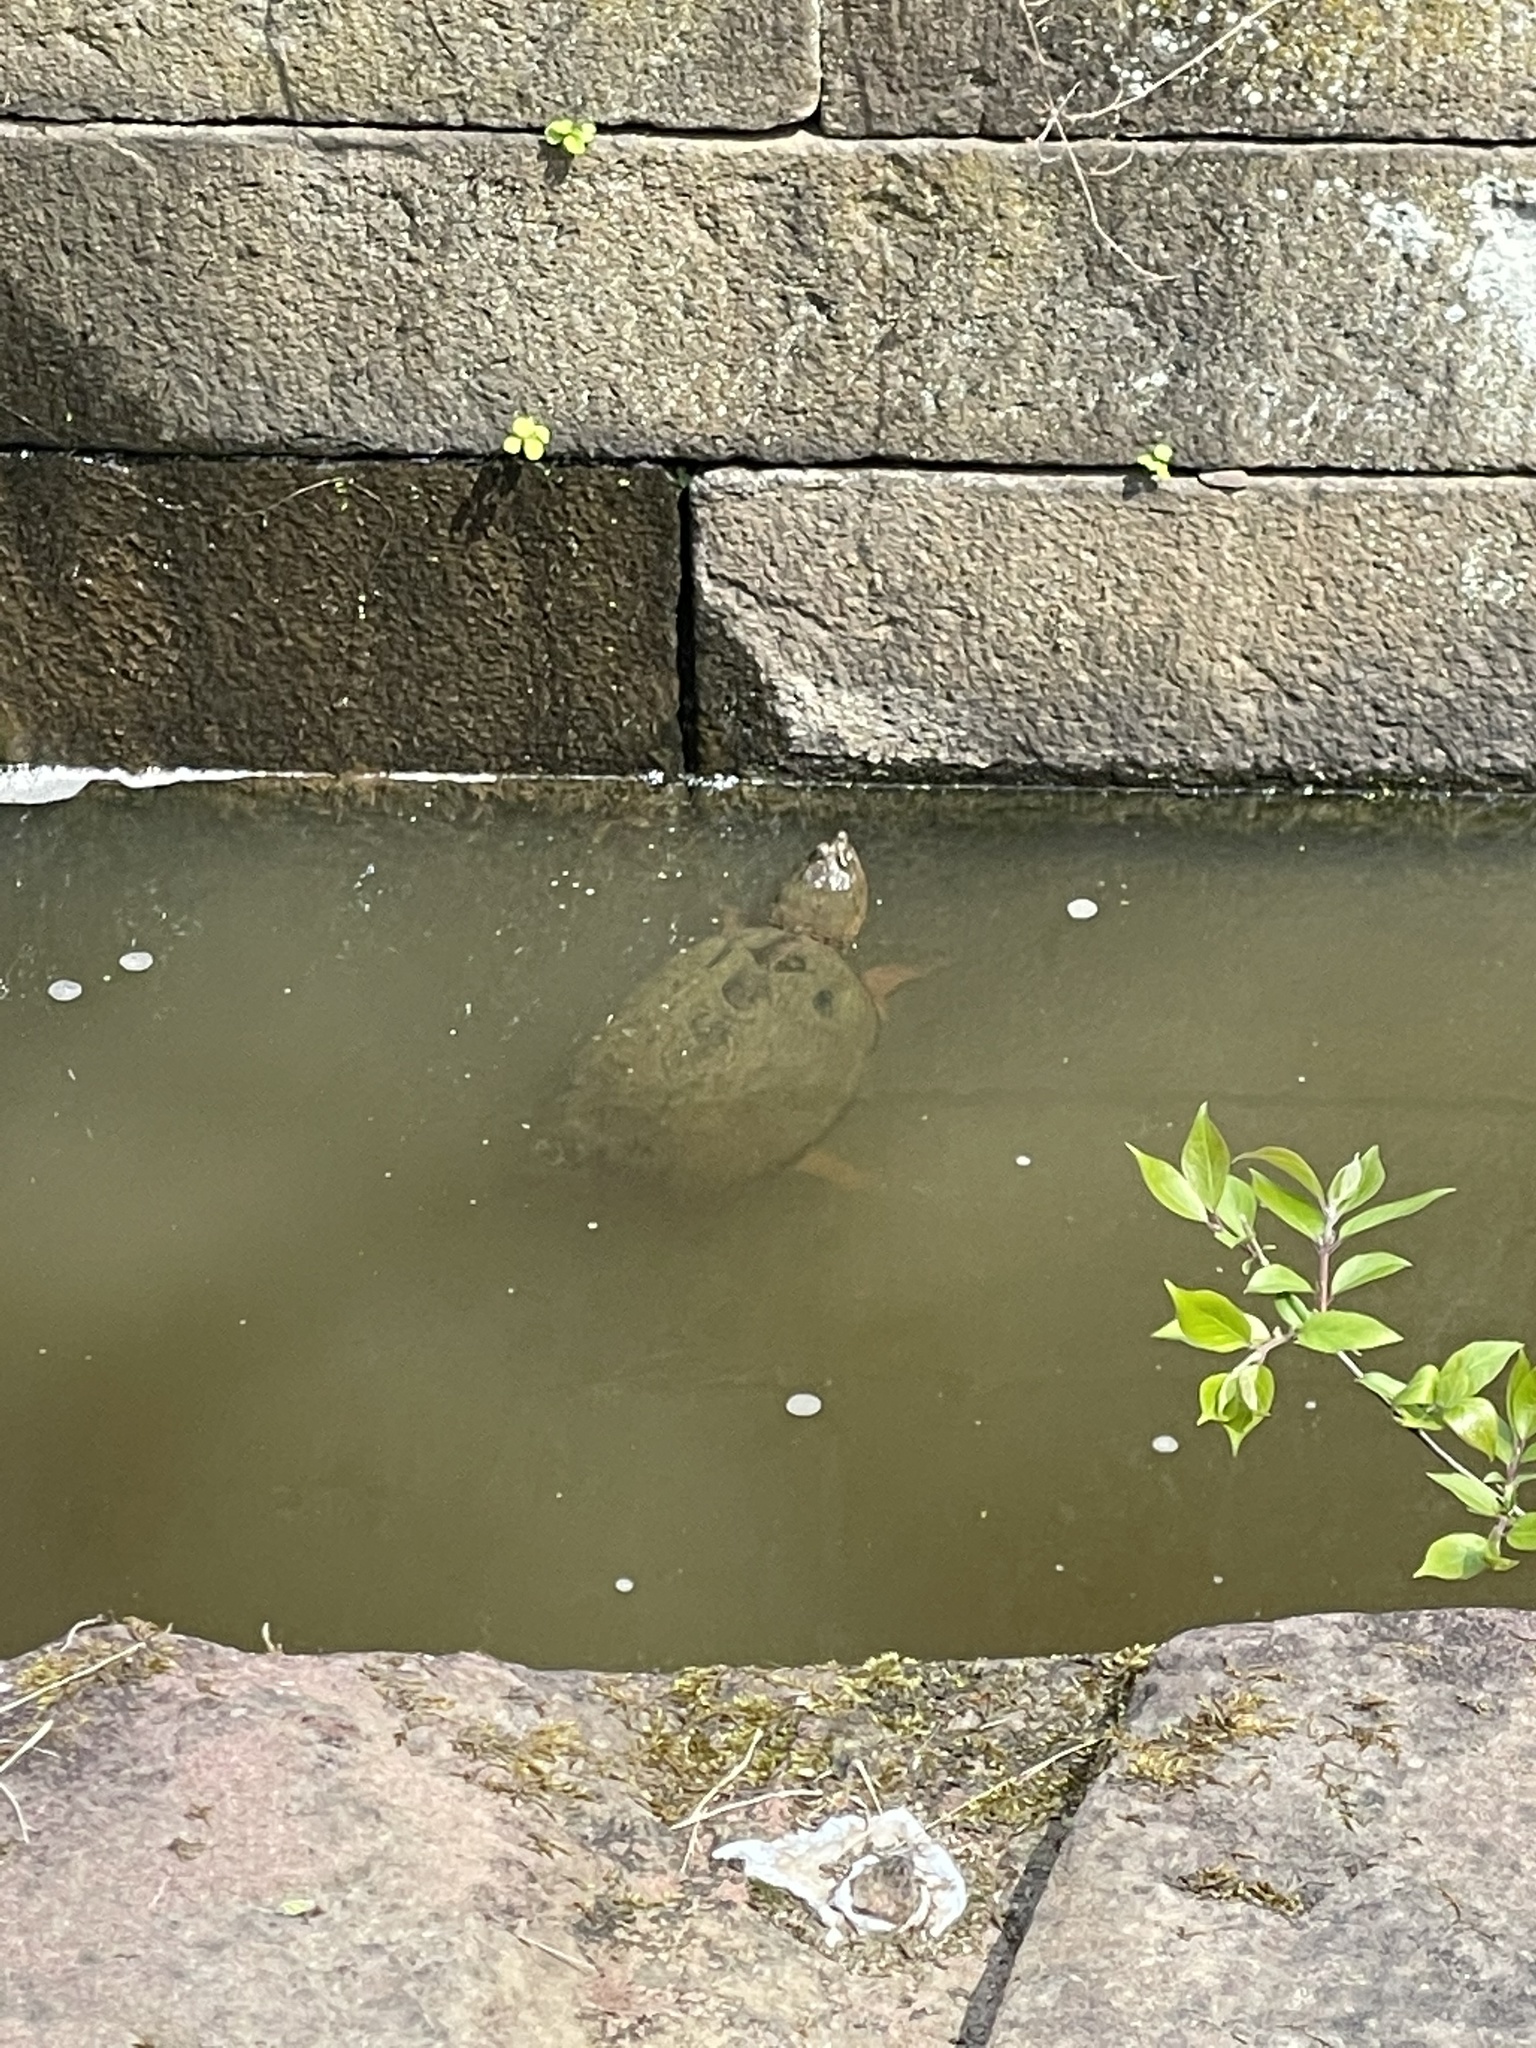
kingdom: Animalia
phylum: Chordata
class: Testudines
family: Chelydridae
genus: Chelydra
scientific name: Chelydra serpentina
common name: Common snapping turtle
